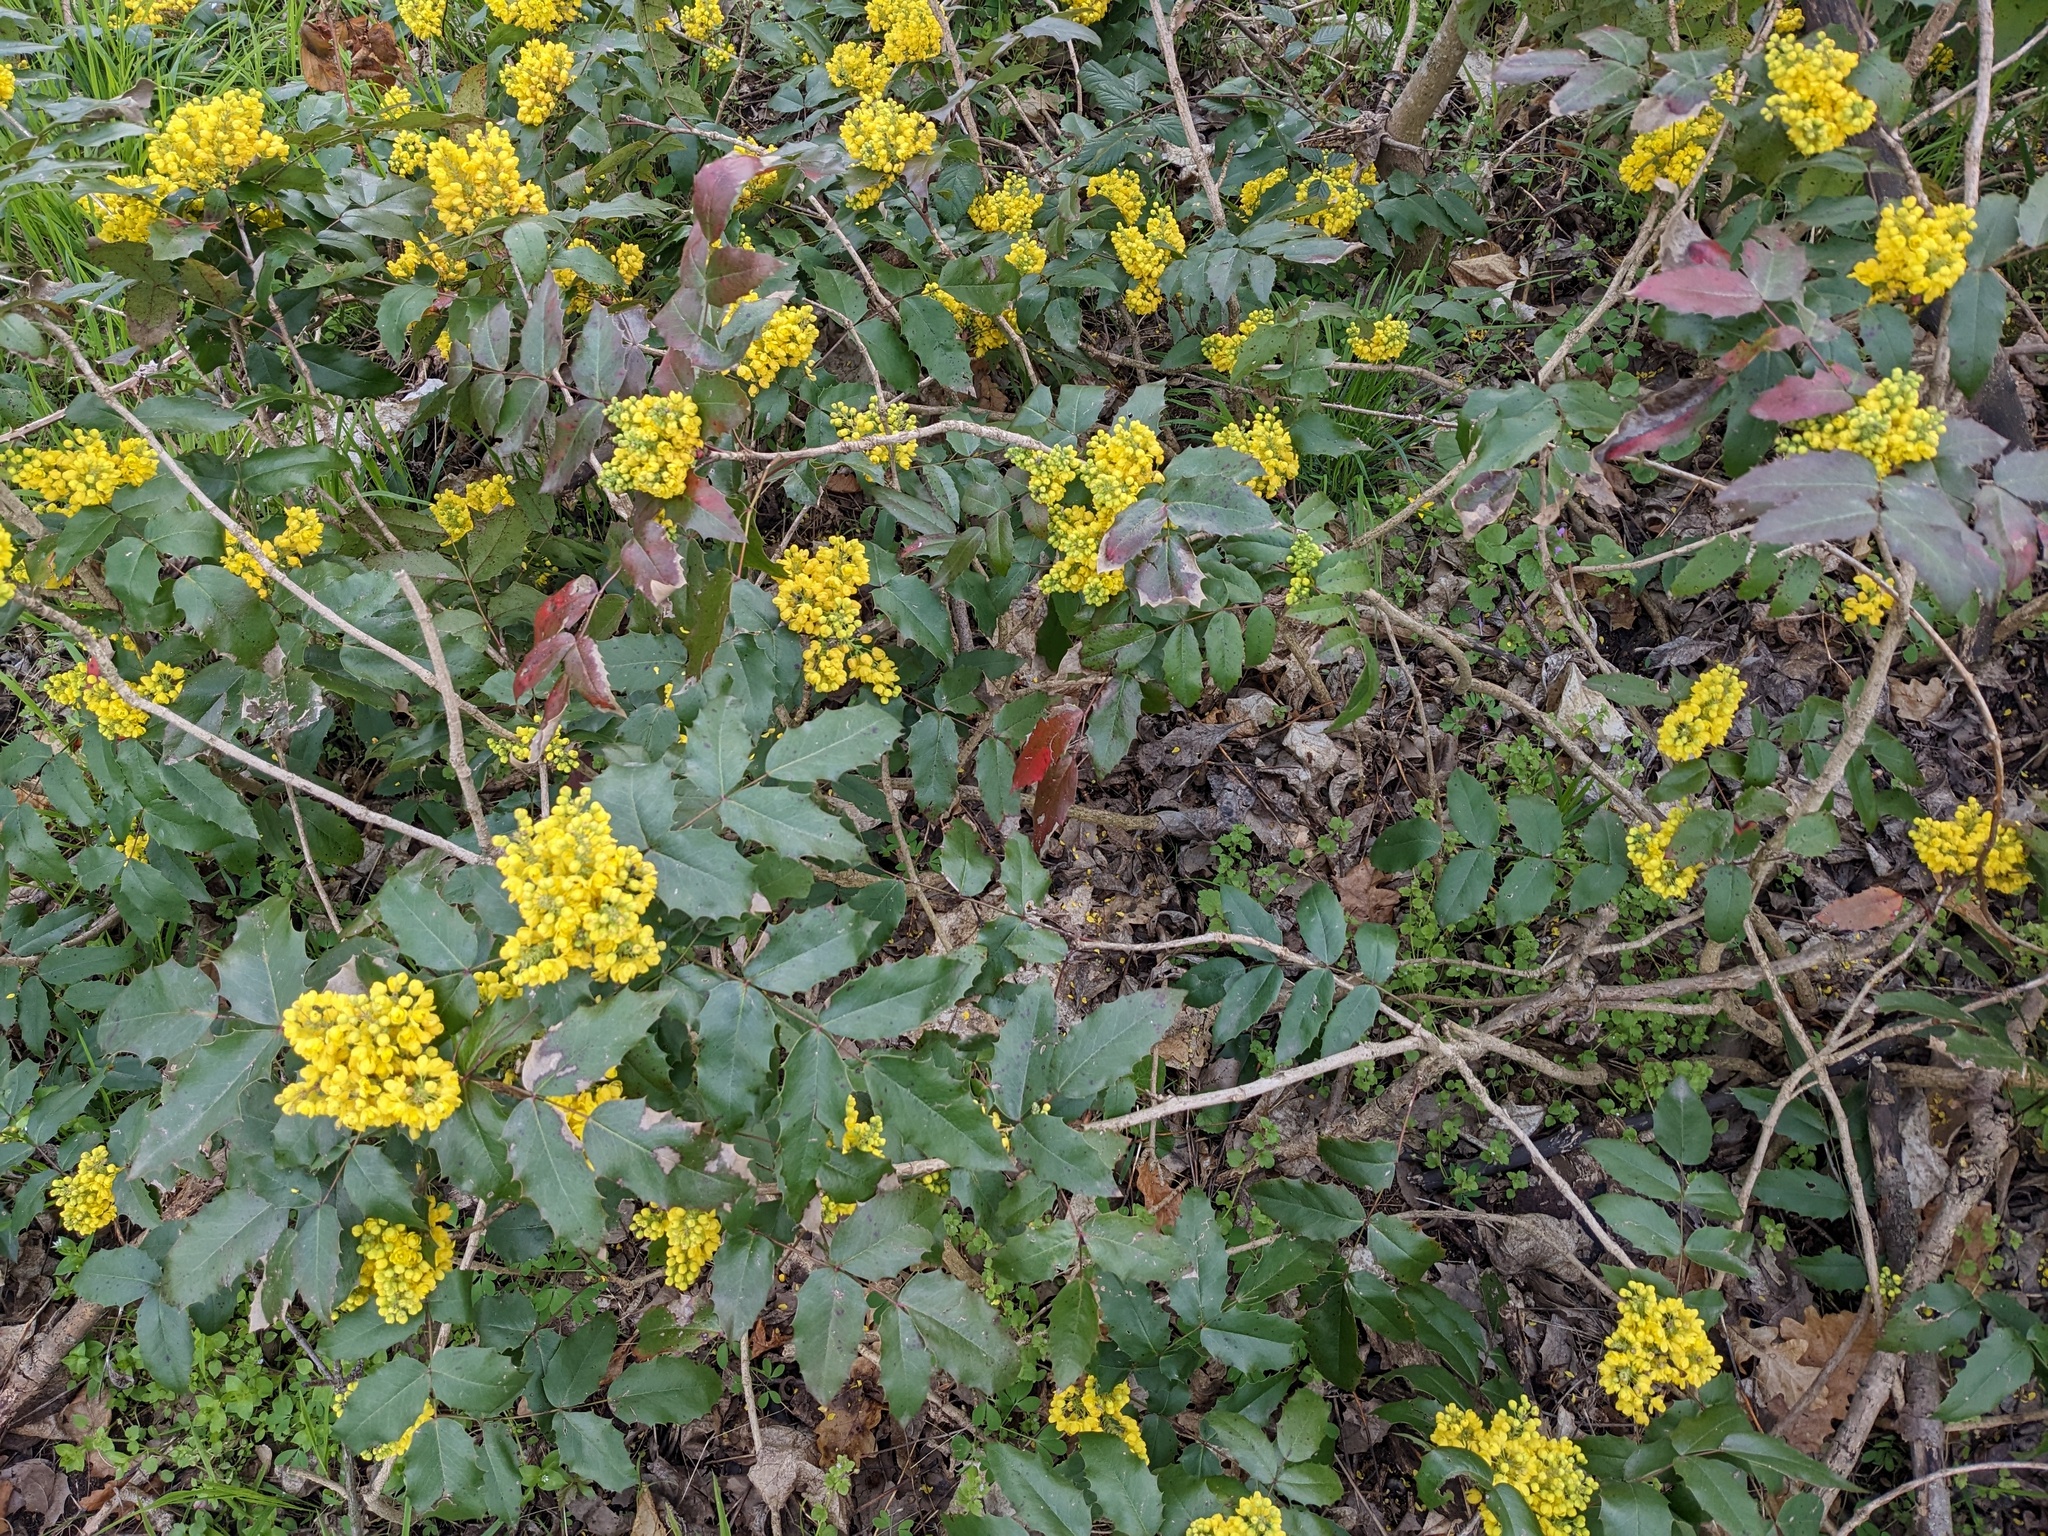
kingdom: Plantae
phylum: Tracheophyta
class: Magnoliopsida
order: Ranunculales
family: Berberidaceae
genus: Mahonia
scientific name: Mahonia aquifolium
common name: Oregon-grape
